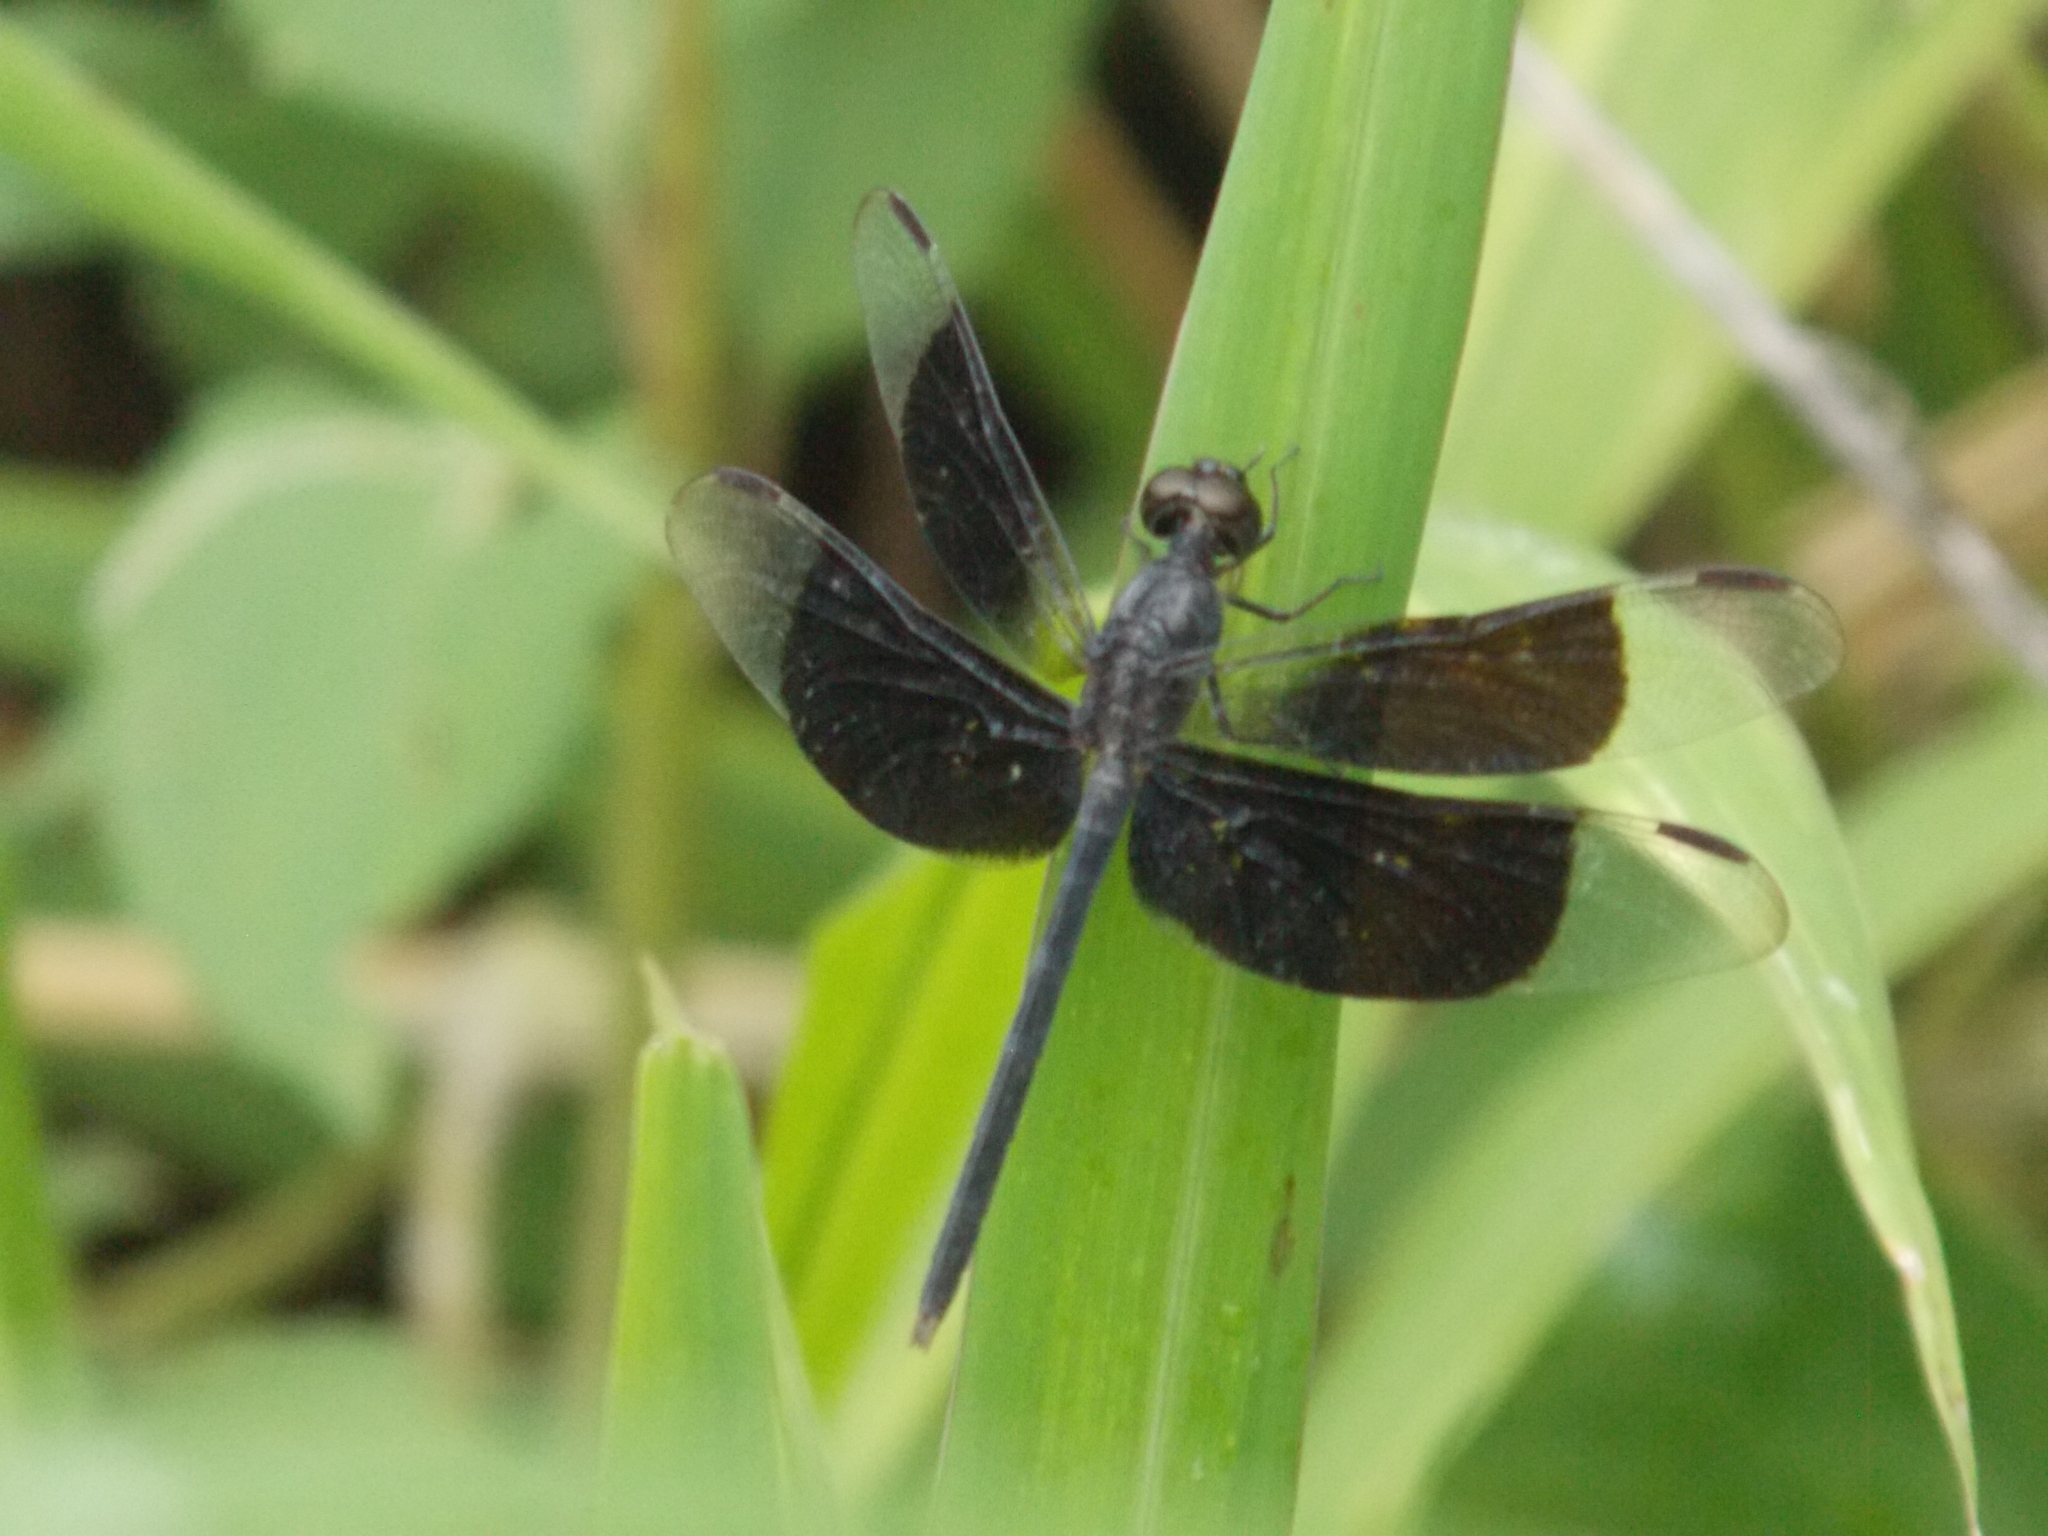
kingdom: Animalia
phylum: Arthropoda
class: Insecta
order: Odonata
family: Libellulidae
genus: Erythrodiplax
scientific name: Erythrodiplax funerea
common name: Black-winged dragonlet
